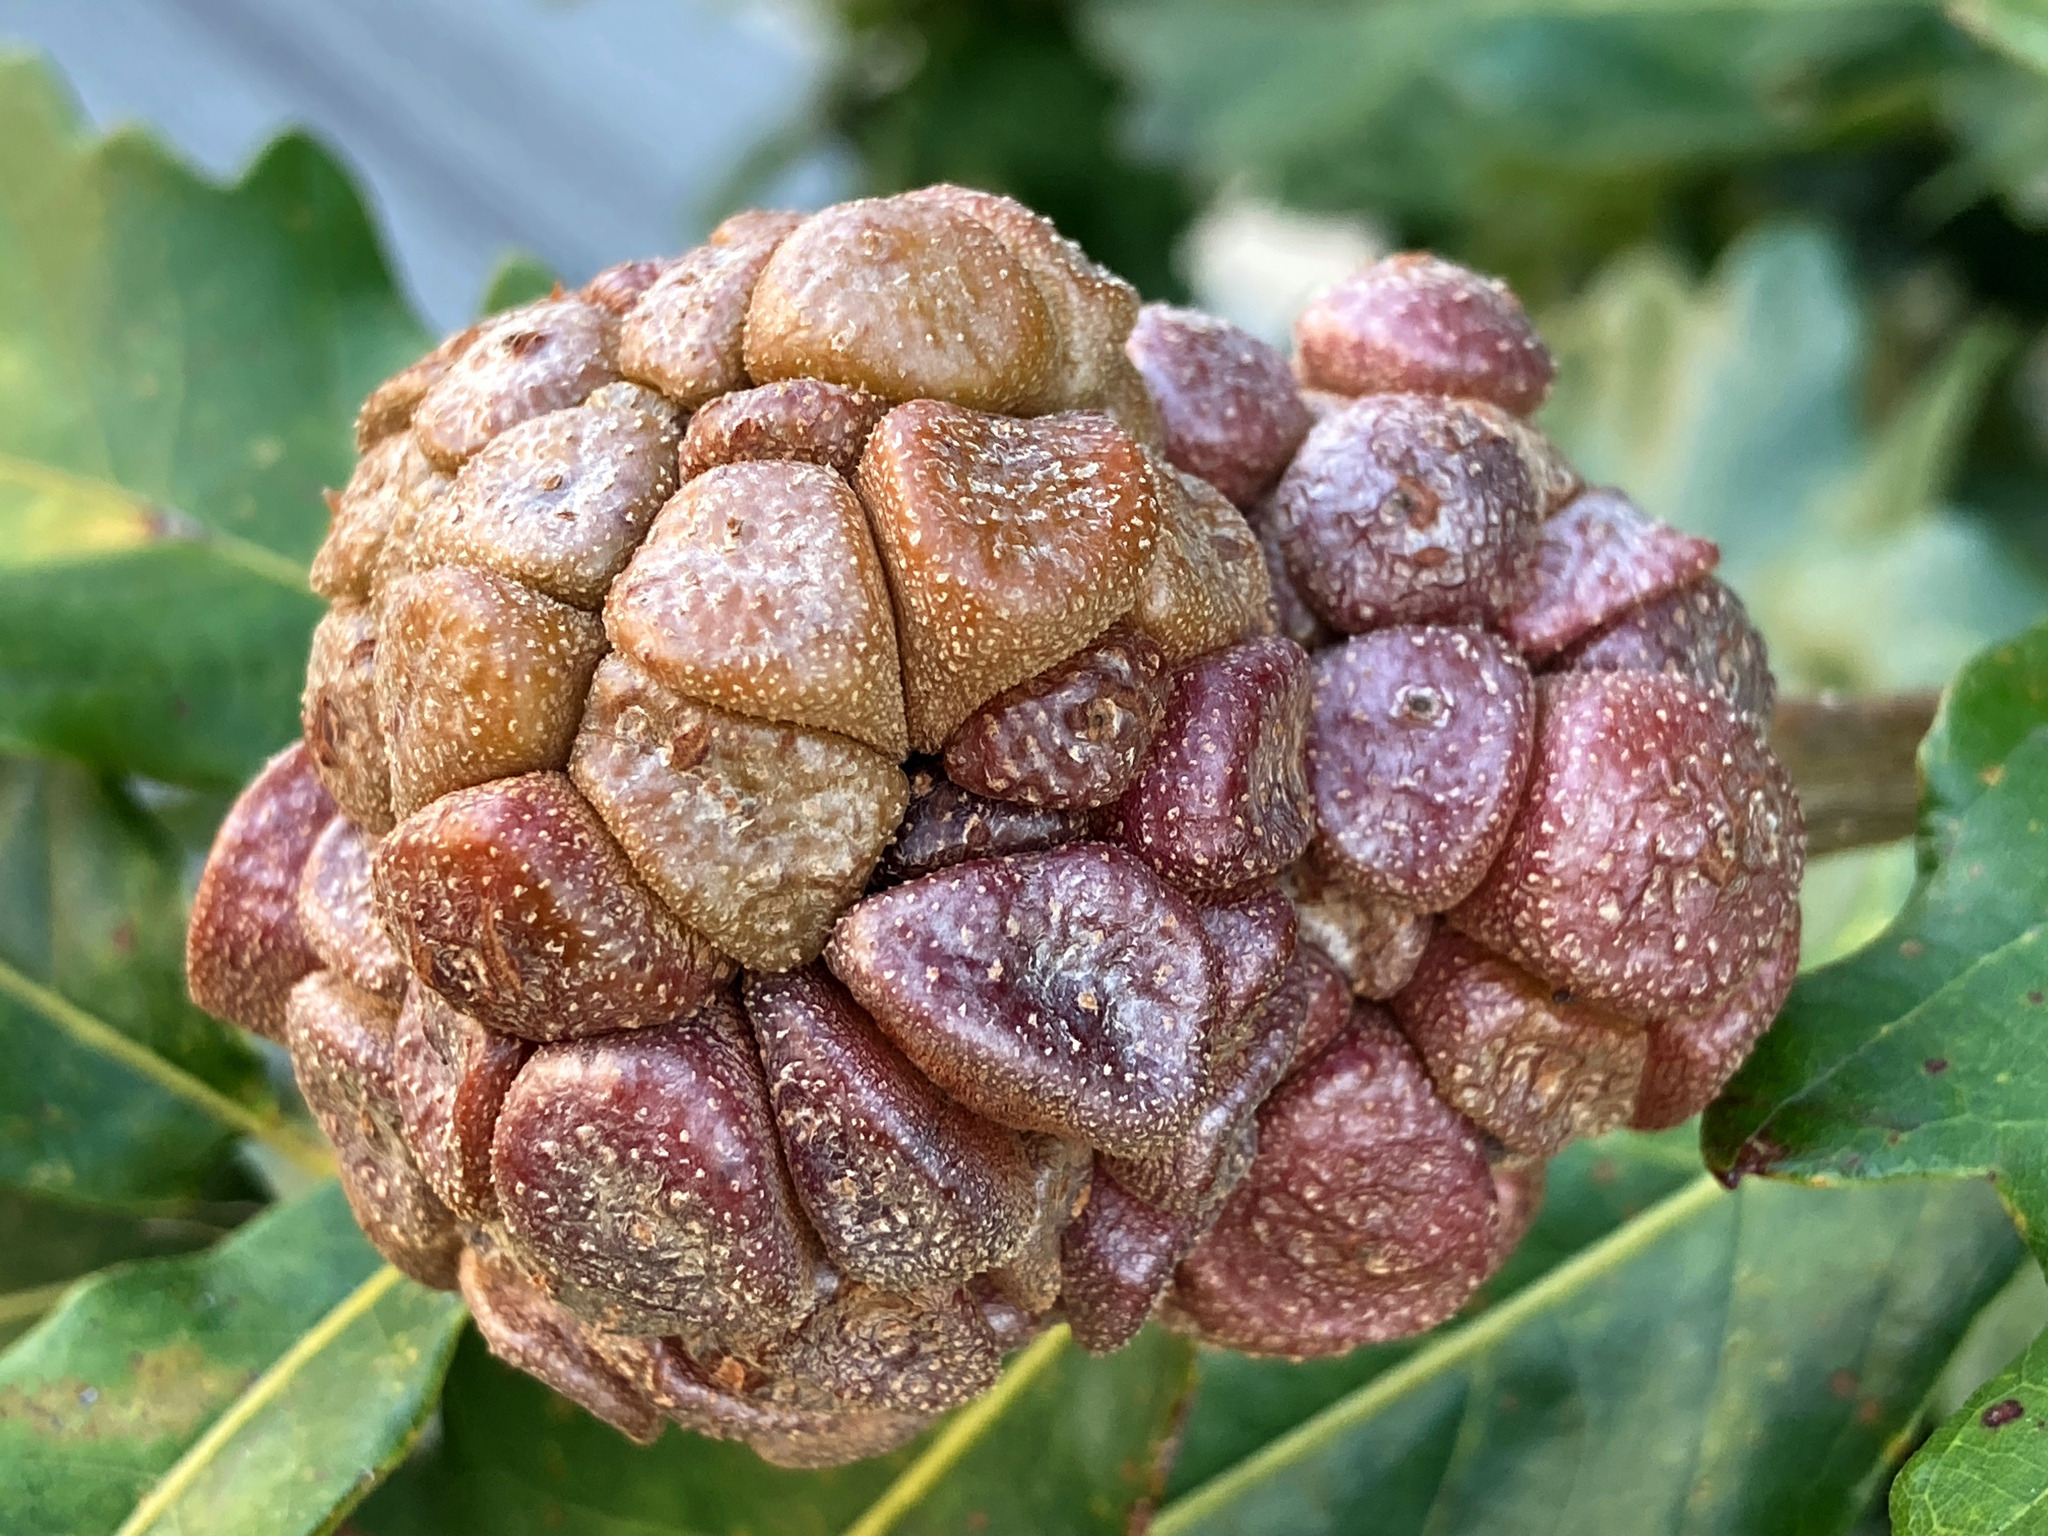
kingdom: Animalia
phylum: Arthropoda
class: Insecta
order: Hymenoptera
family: Cynipidae
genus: Andricus
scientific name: Andricus
